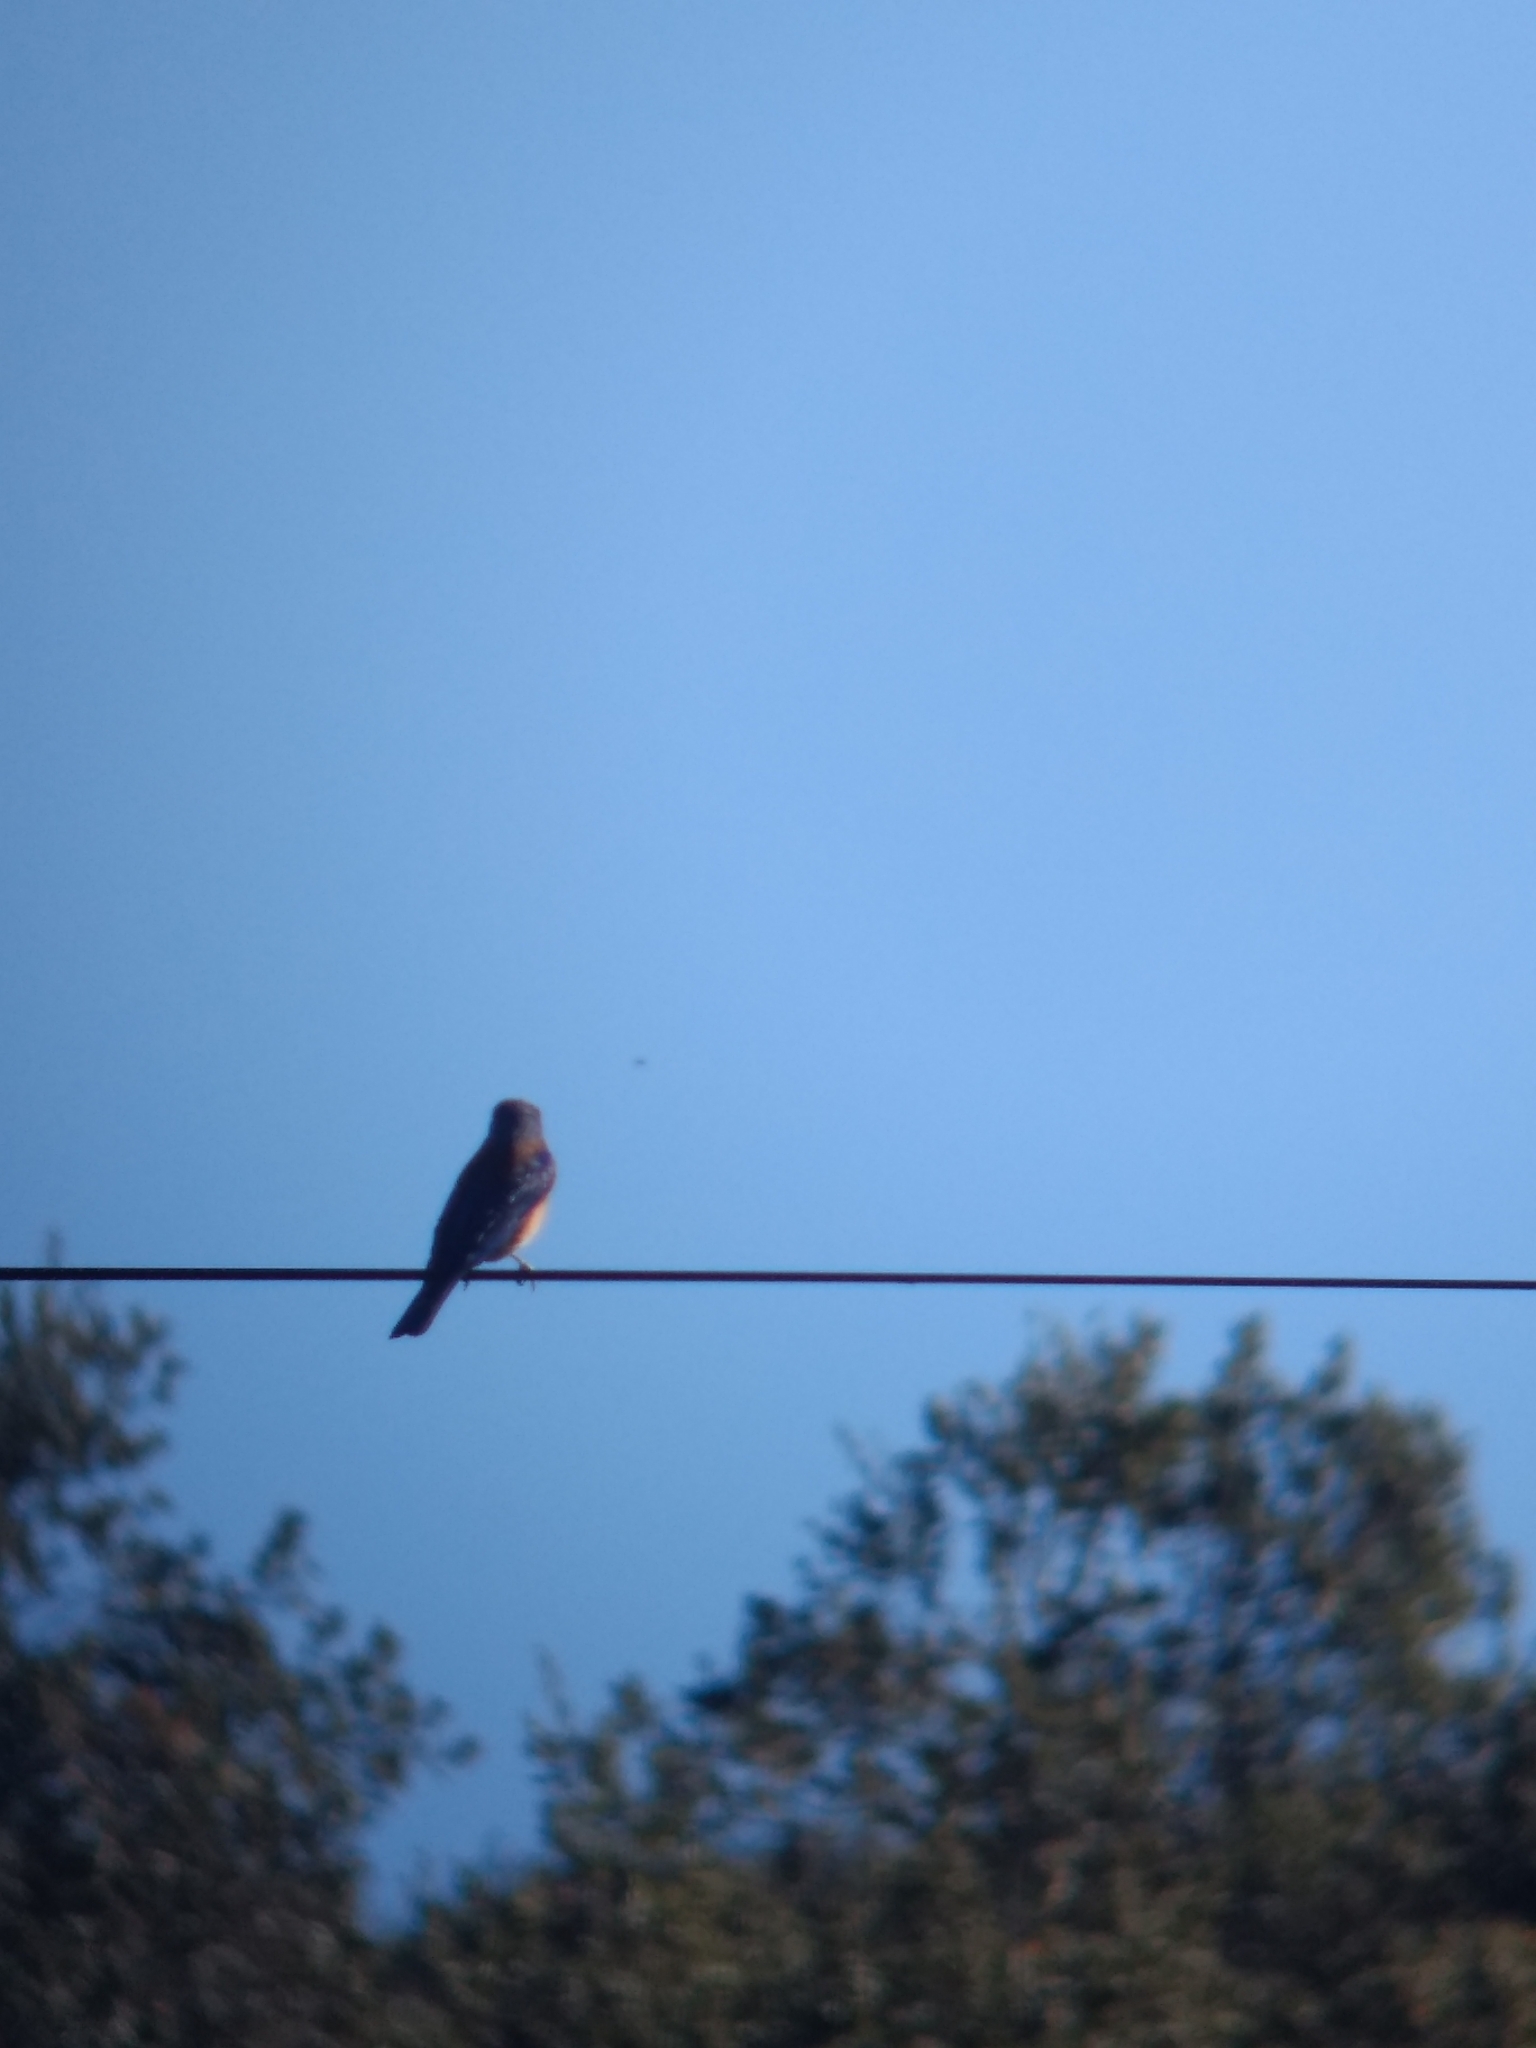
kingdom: Animalia
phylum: Chordata
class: Aves
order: Passeriformes
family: Turdidae
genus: Sialia
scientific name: Sialia mexicana
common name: Western bluebird
